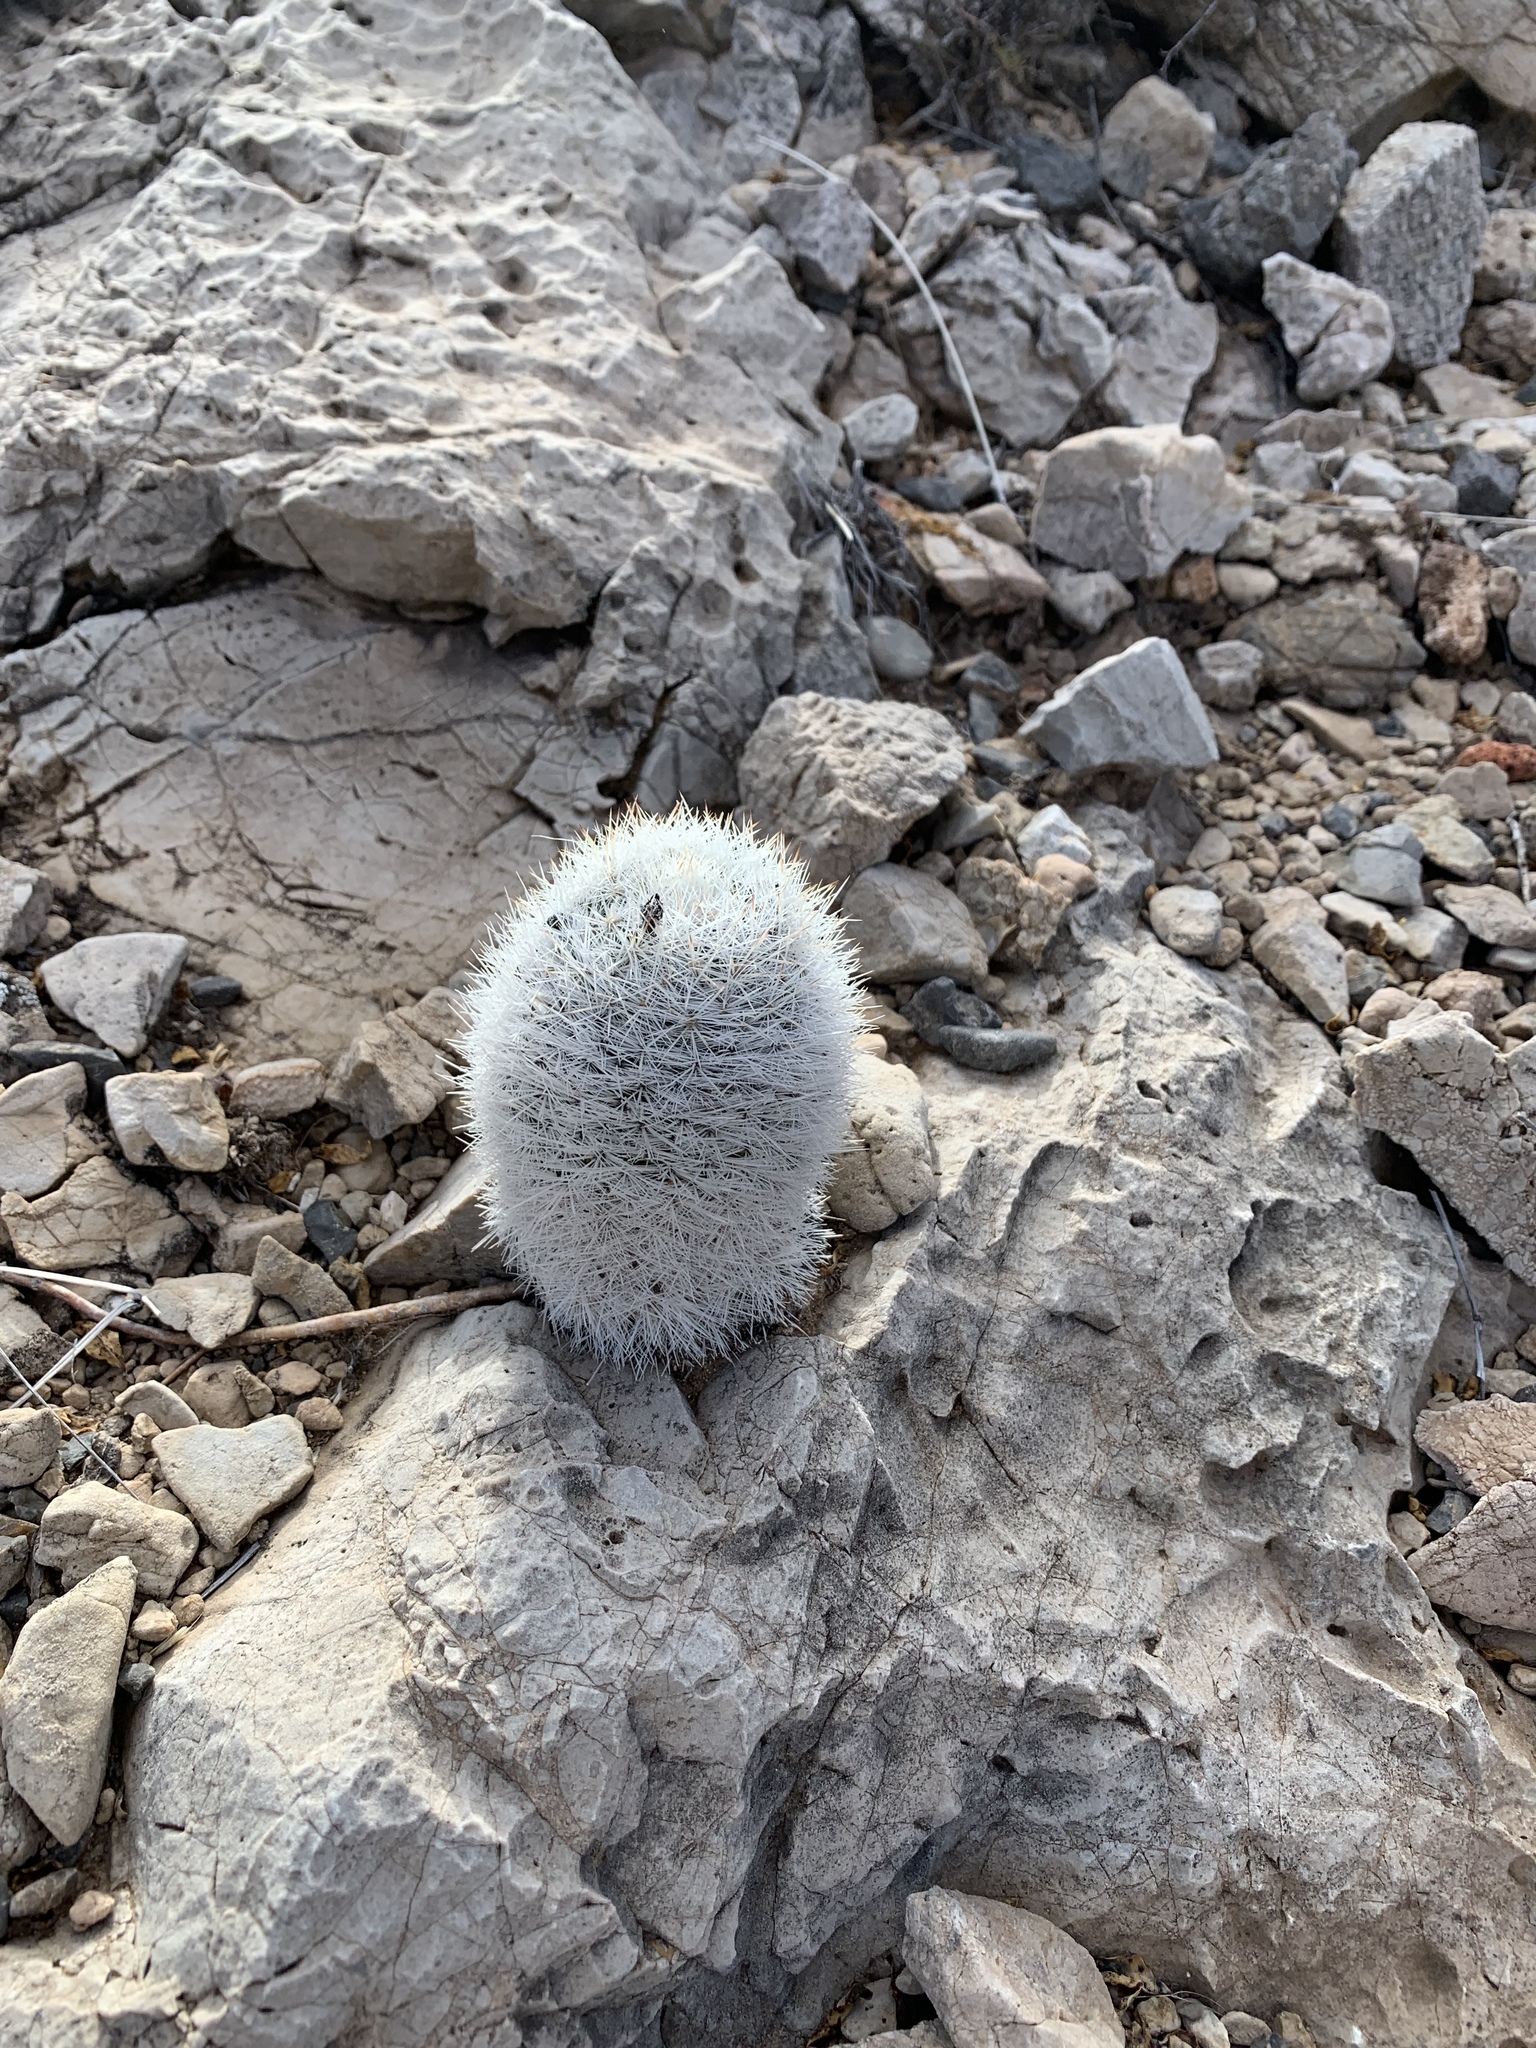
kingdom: Plantae
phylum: Tracheophyta
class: Magnoliopsida
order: Caryophyllales
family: Cactaceae
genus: Pelecyphora
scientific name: Pelecyphora sneedii
